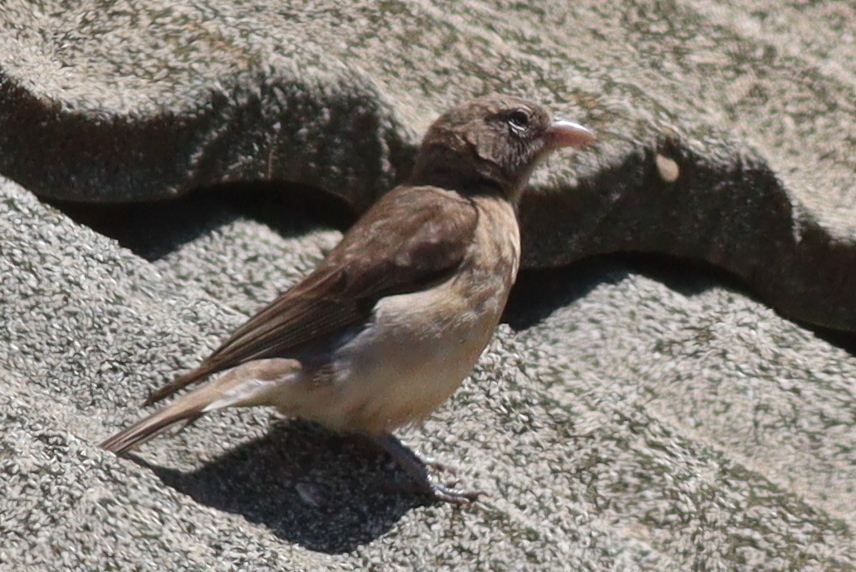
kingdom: Animalia
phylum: Chordata
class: Aves
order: Passeriformes
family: Passeridae
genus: Gymnoris
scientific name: Gymnoris pyrgita
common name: Yellow-spotted petronia
